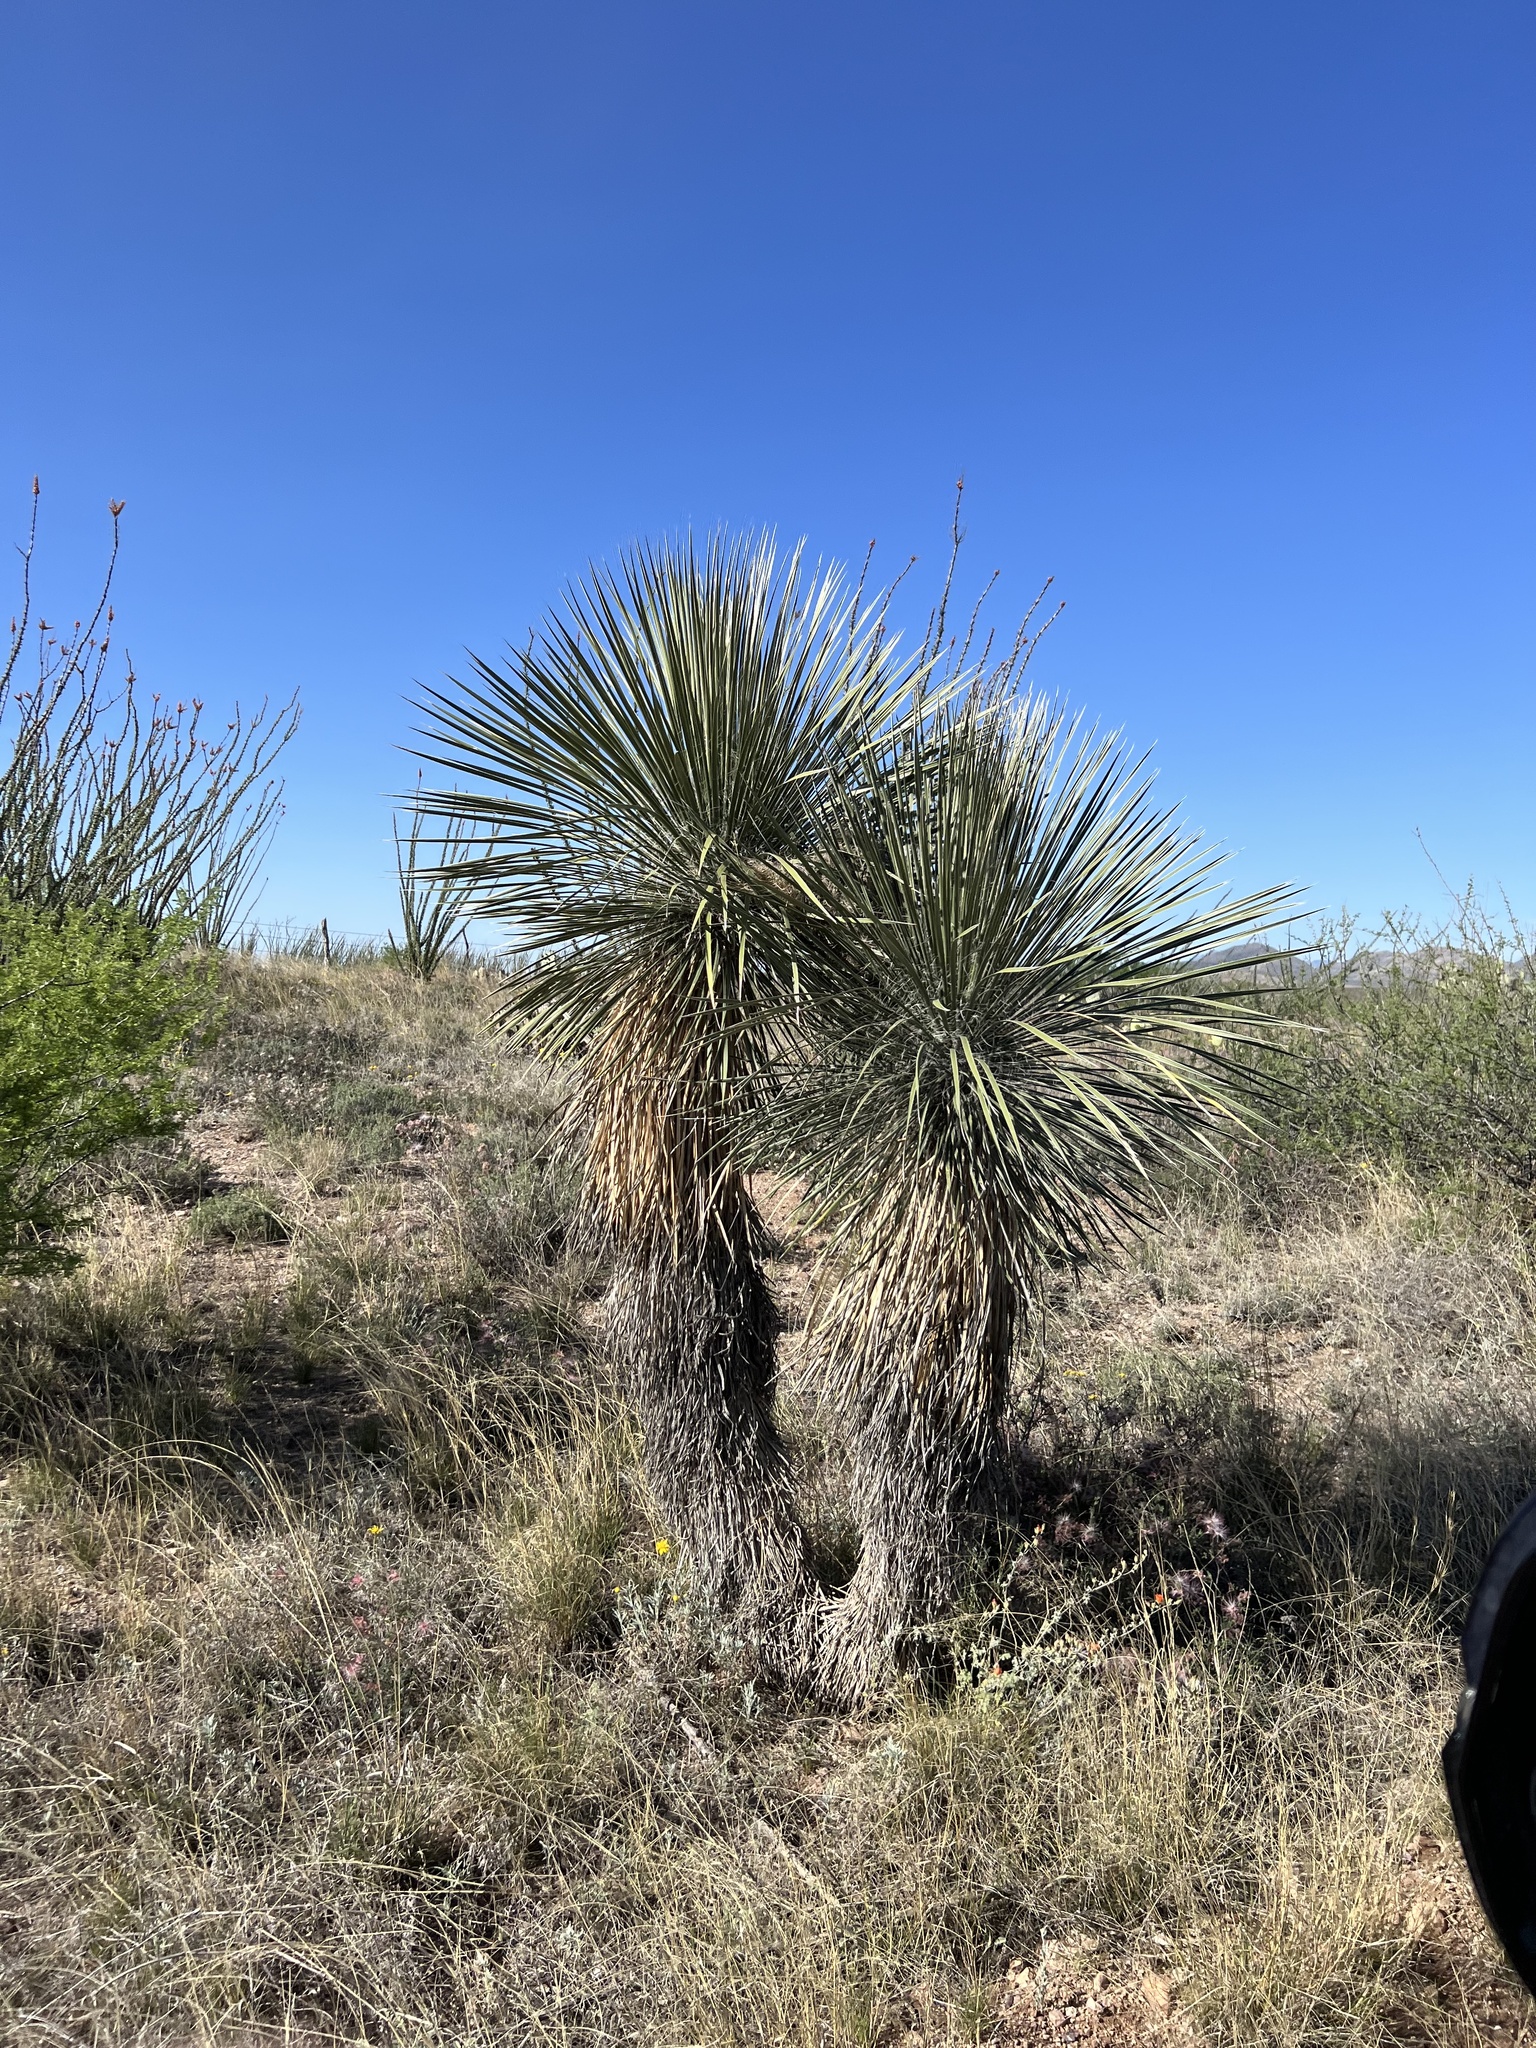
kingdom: Plantae
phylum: Tracheophyta
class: Liliopsida
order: Asparagales
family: Asparagaceae
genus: Yucca
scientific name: Yucca elata
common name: Palmella
